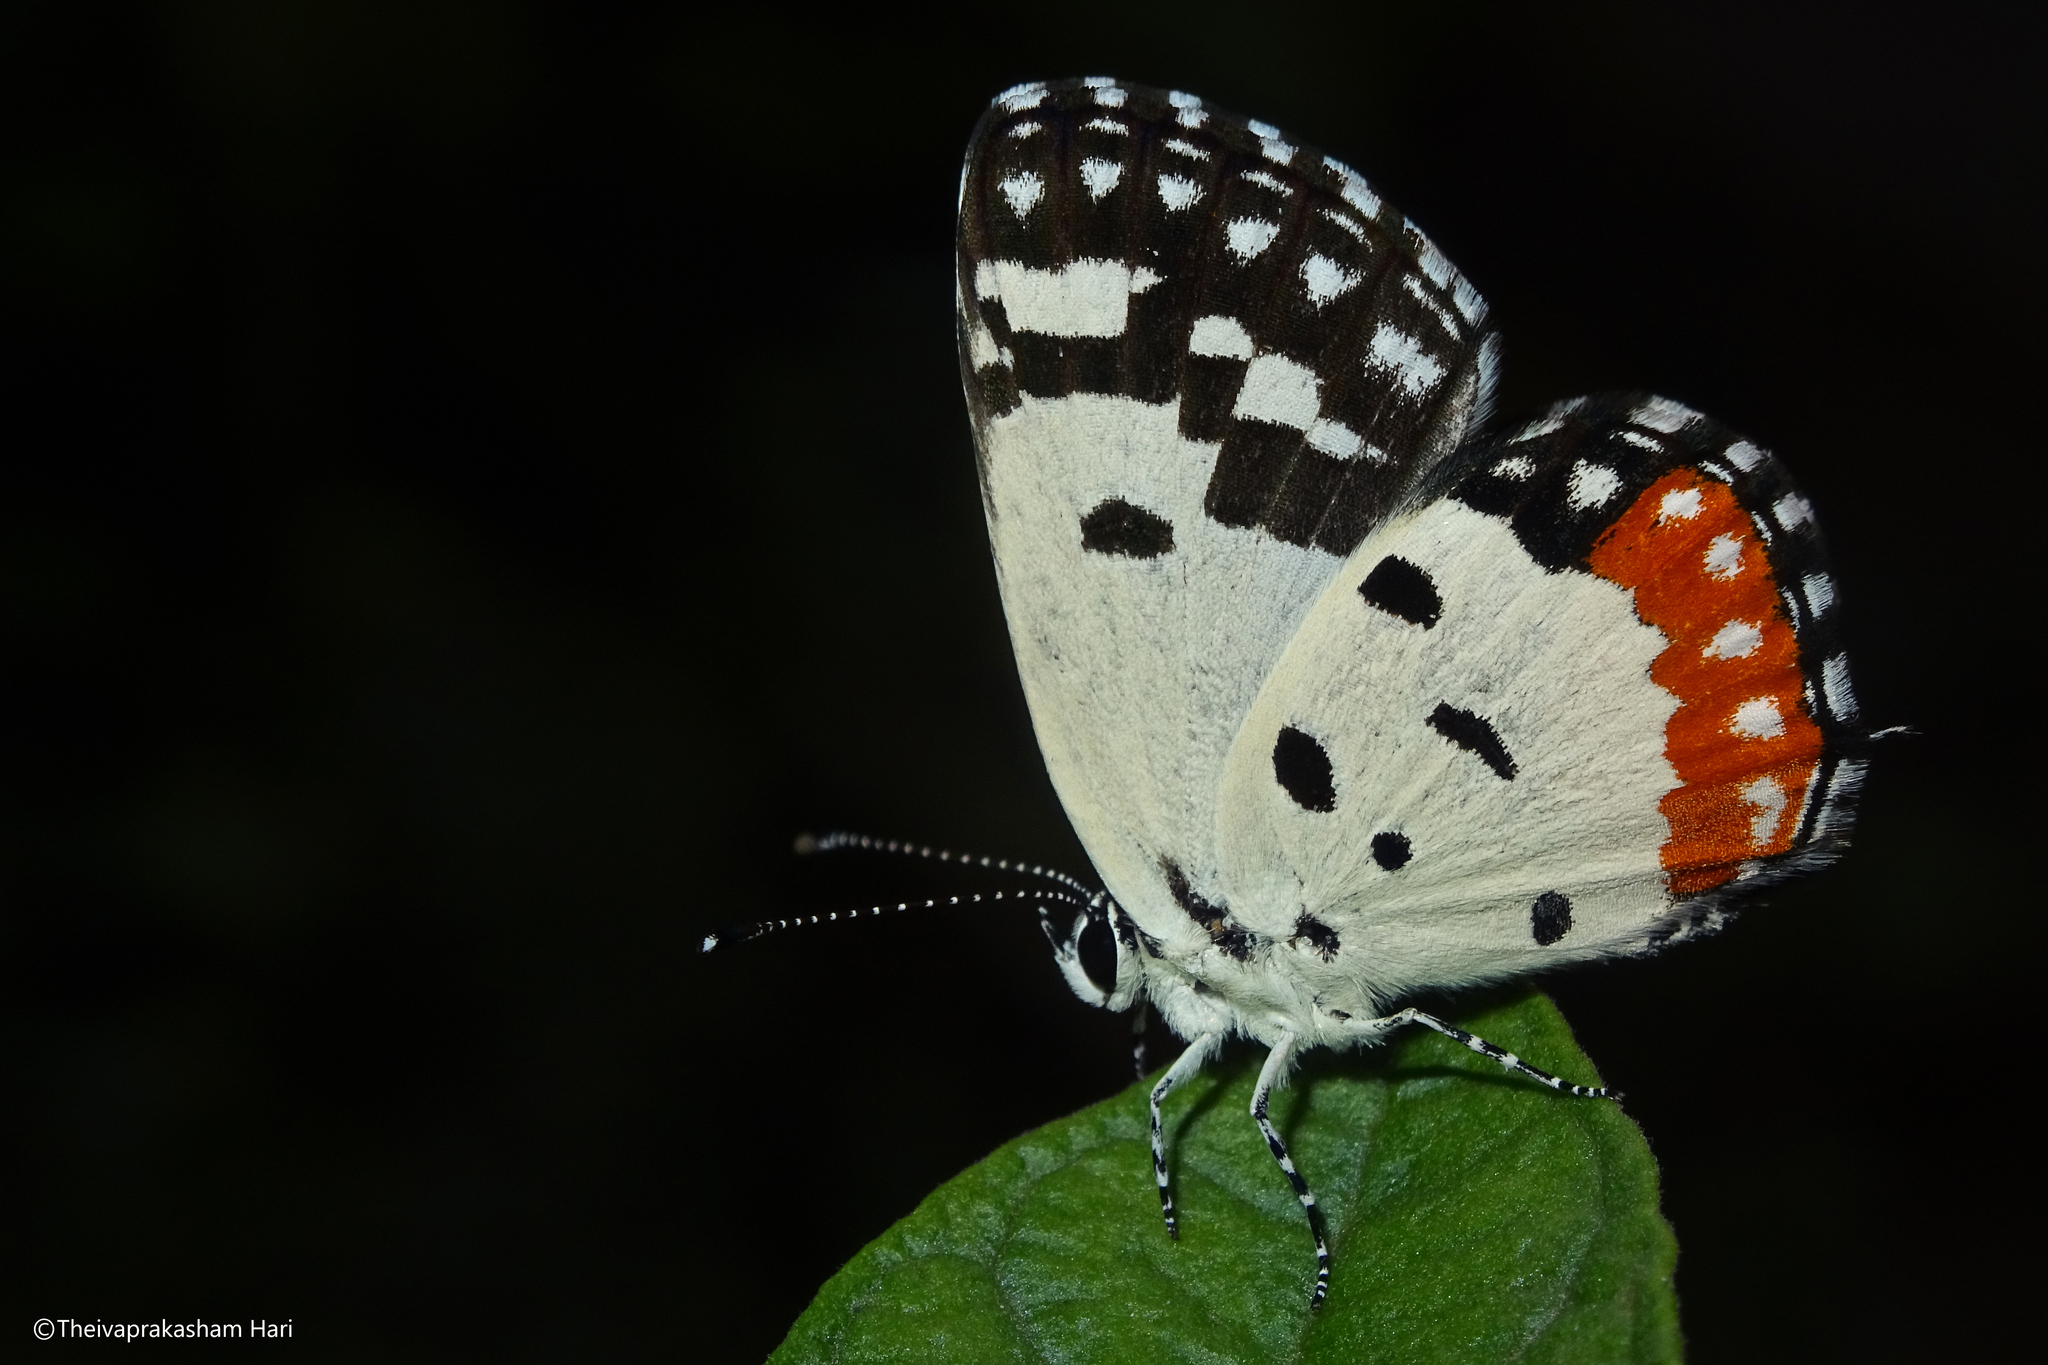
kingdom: Animalia
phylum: Arthropoda
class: Insecta
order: Lepidoptera
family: Lycaenidae
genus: Talicada
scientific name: Talicada nyseus
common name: Red pierrot
